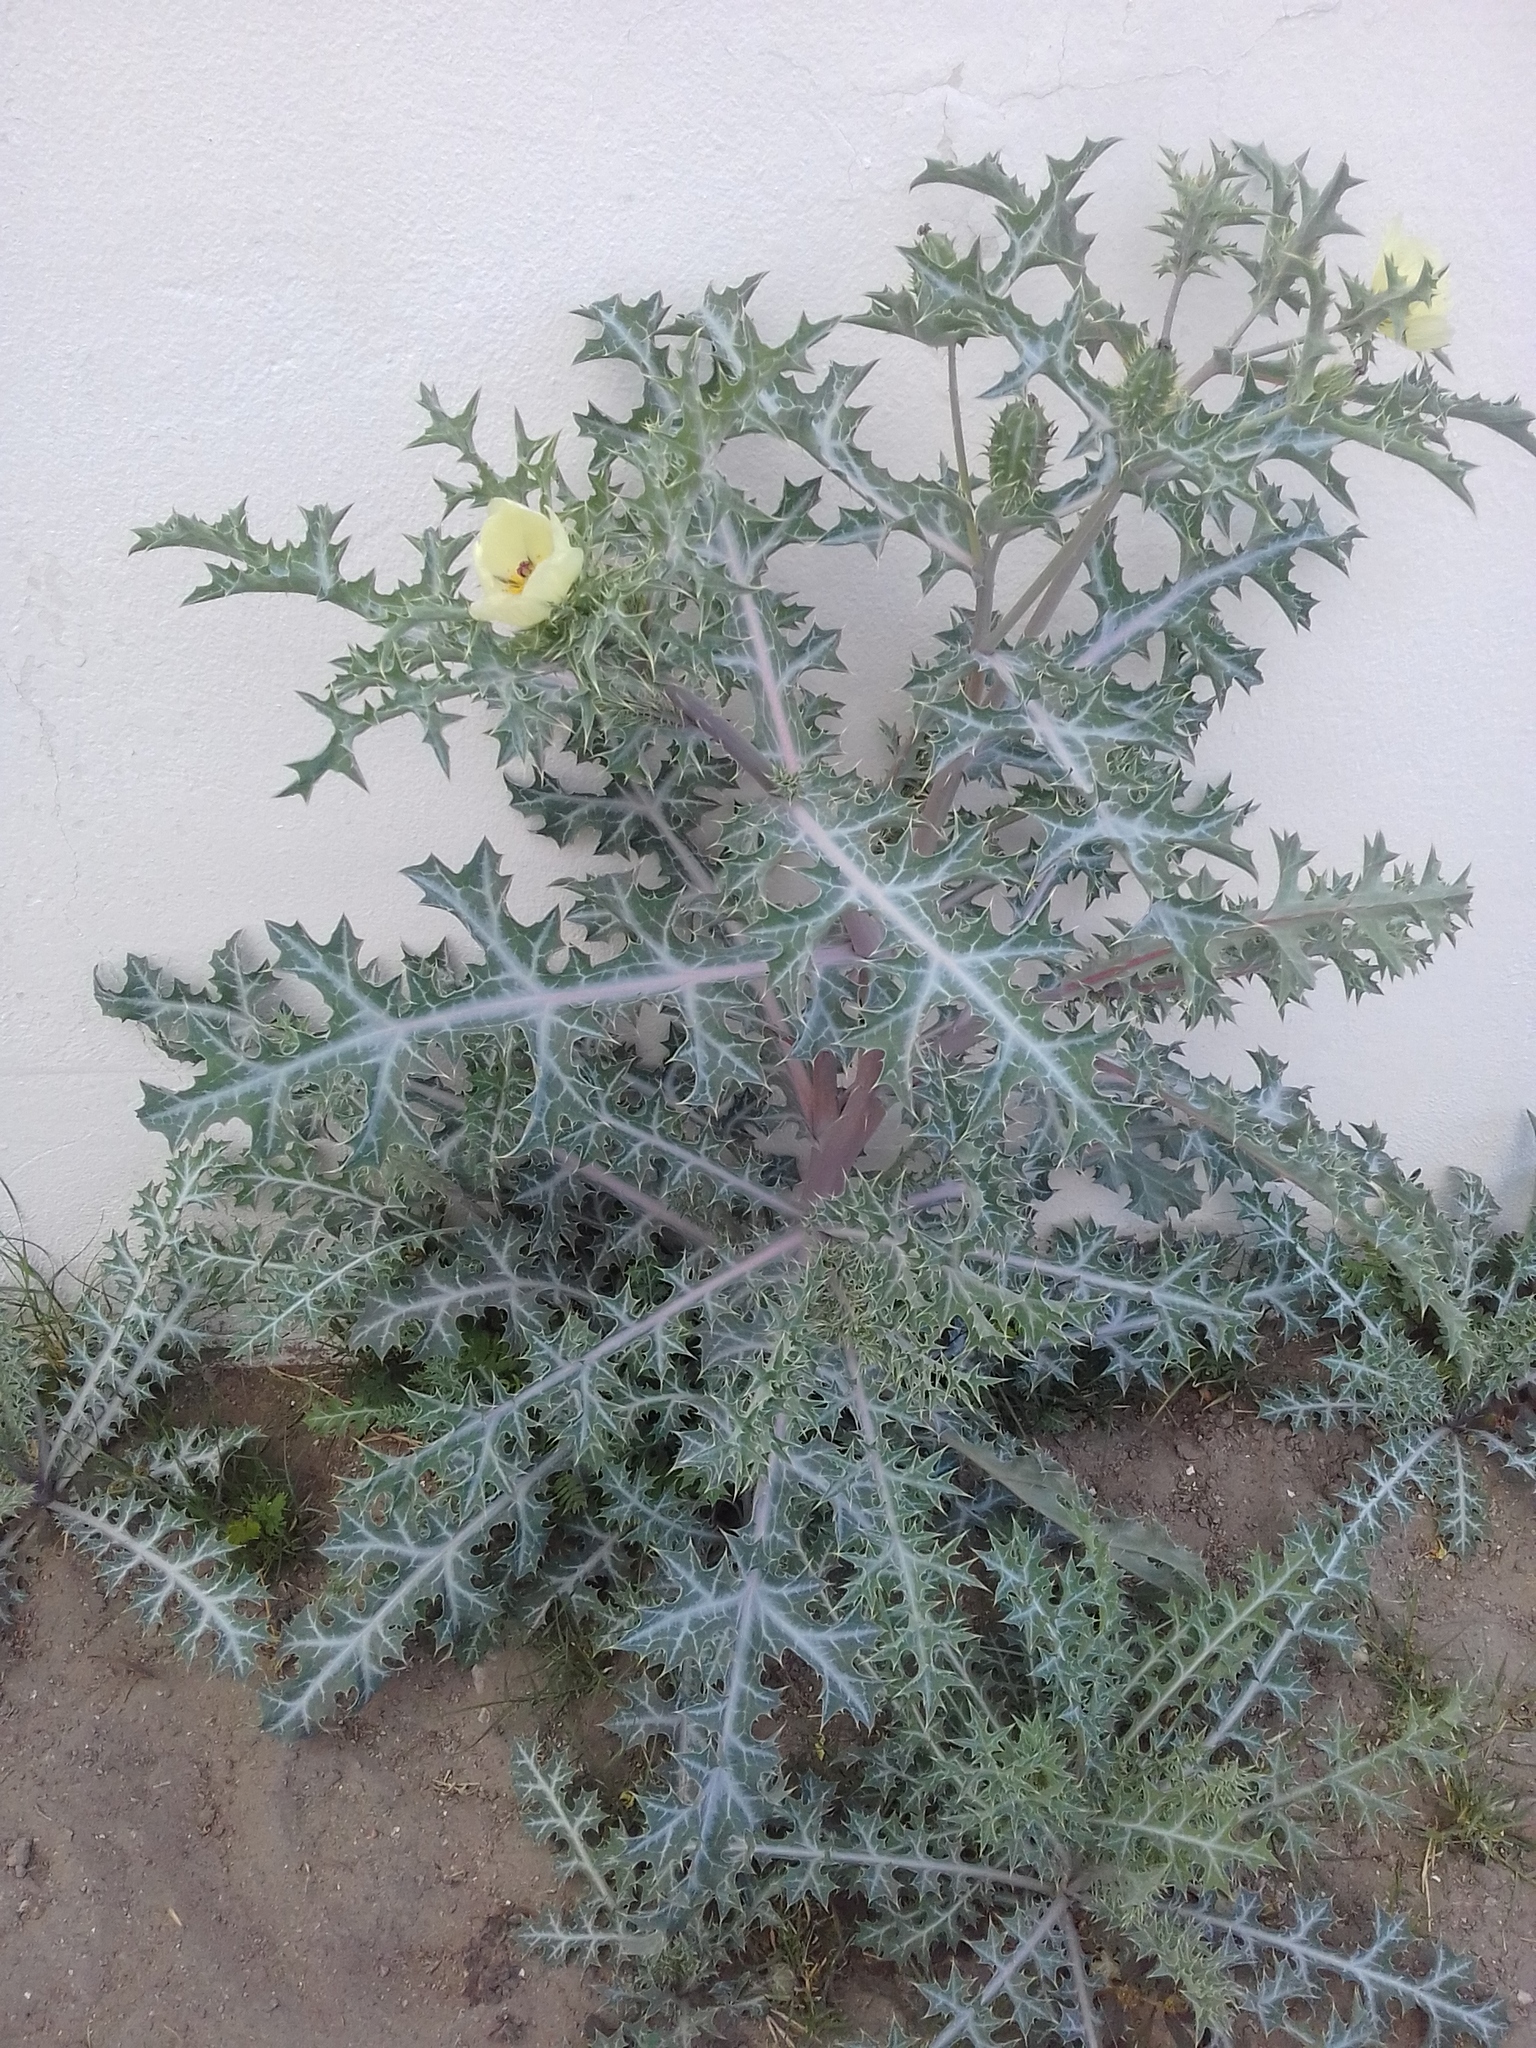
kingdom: Plantae
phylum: Tracheophyta
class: Magnoliopsida
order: Ranunculales
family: Papaveraceae
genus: Argemone
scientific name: Argemone ochroleuca
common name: White-flower mexican-poppy
